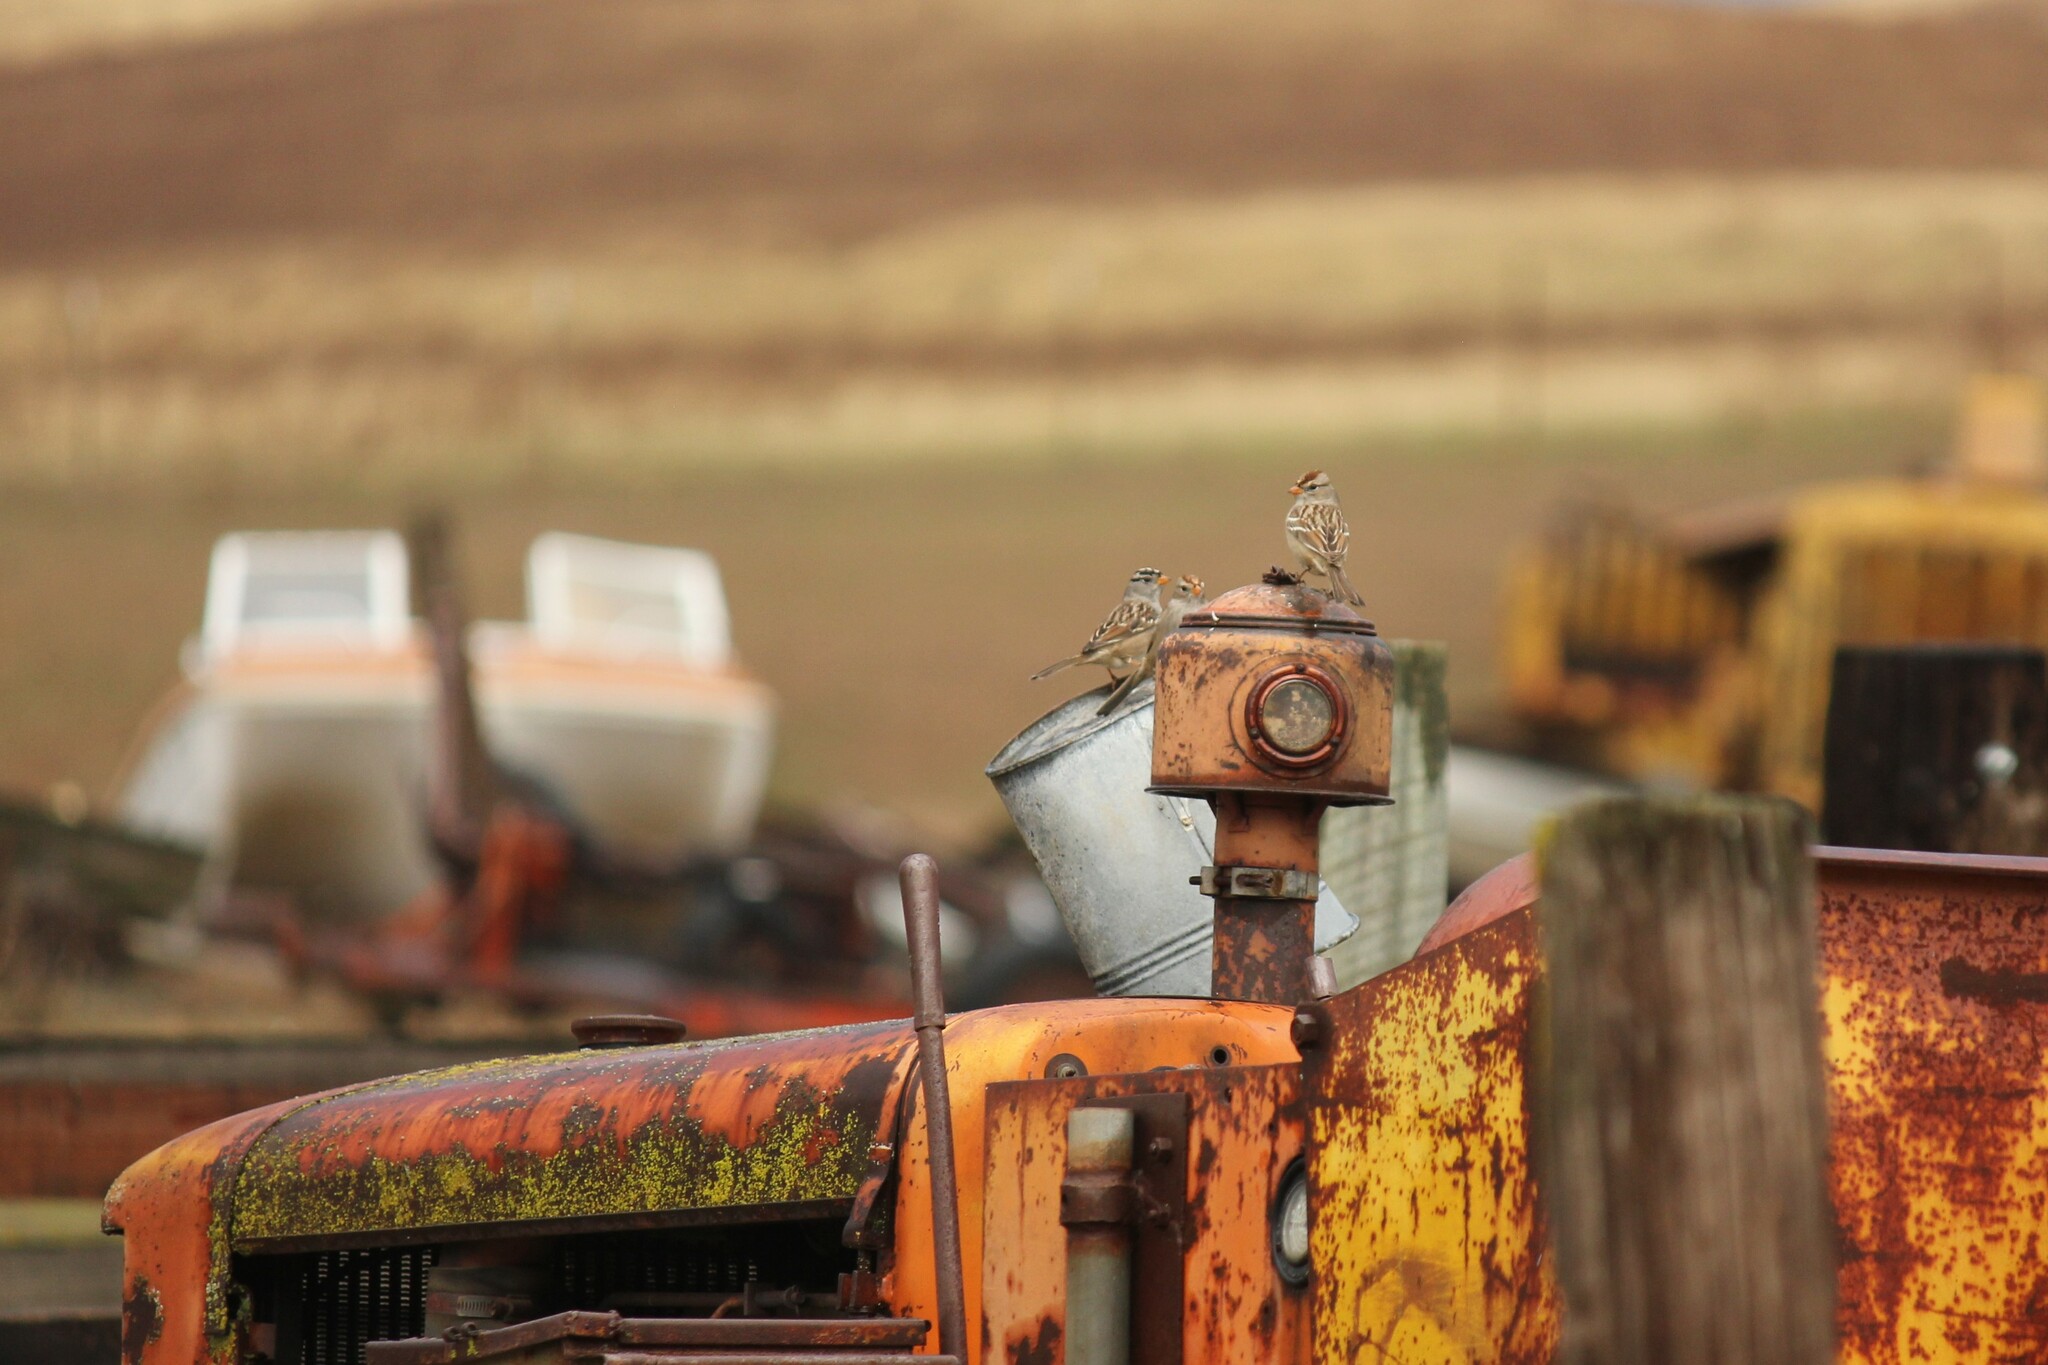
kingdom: Animalia
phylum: Chordata
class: Aves
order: Passeriformes
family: Passerellidae
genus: Zonotrichia
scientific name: Zonotrichia leucophrys
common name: White-crowned sparrow
